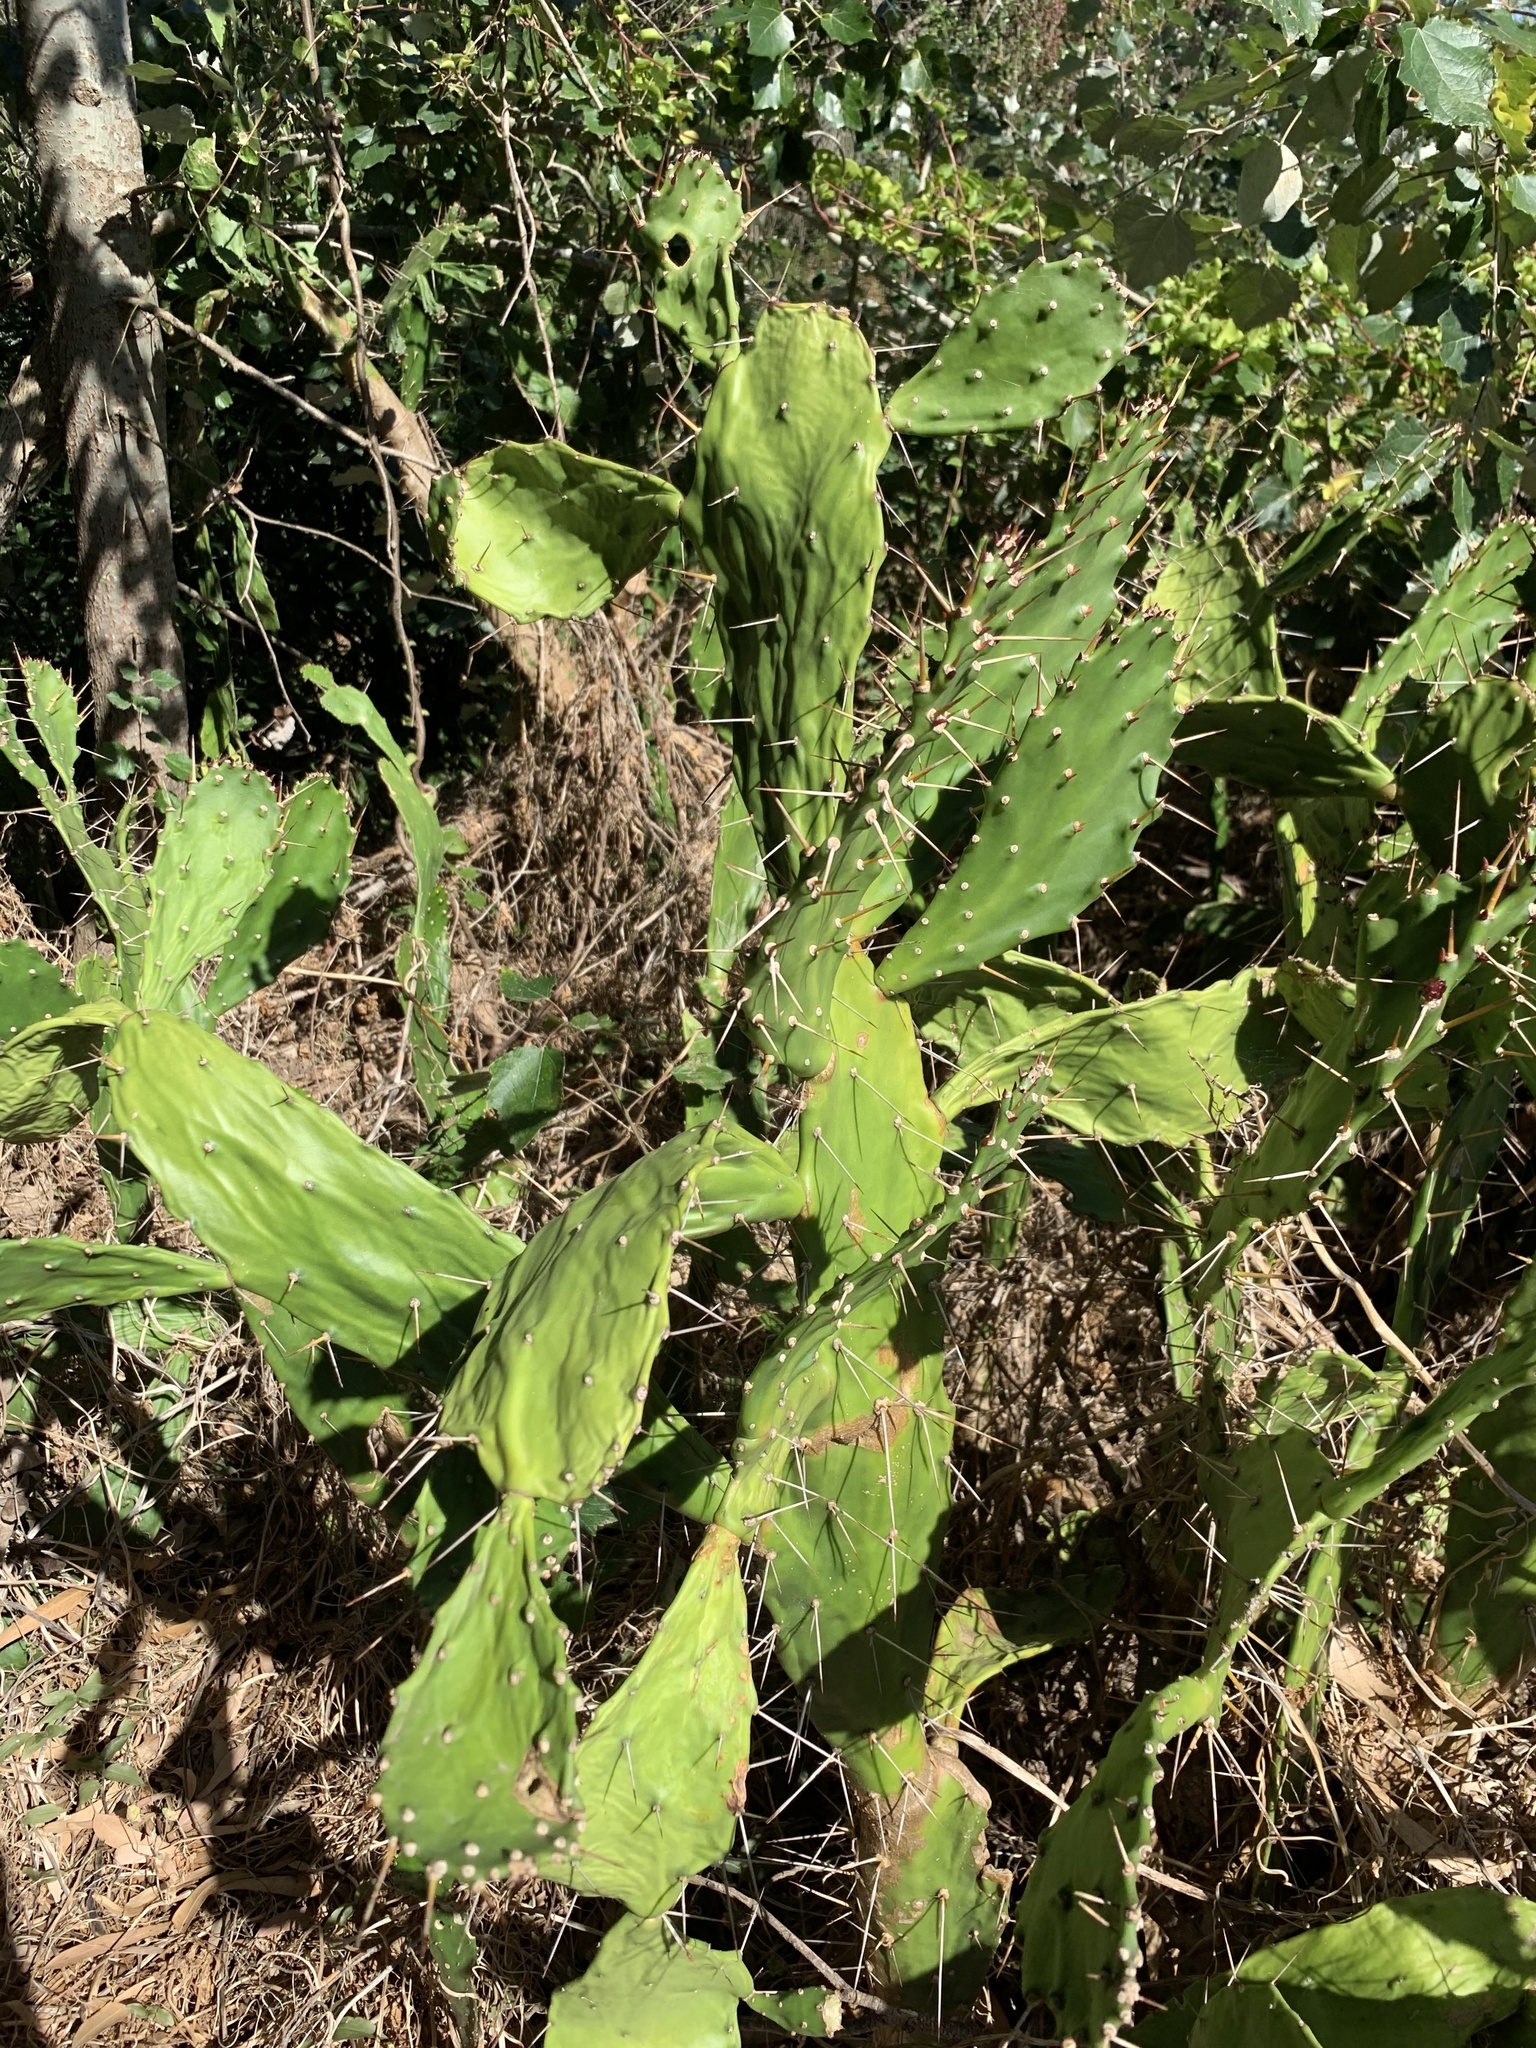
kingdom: Plantae
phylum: Tracheophyta
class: Magnoliopsida
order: Caryophyllales
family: Cactaceae
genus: Opuntia
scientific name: Opuntia monacantha
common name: Common pricklypear
